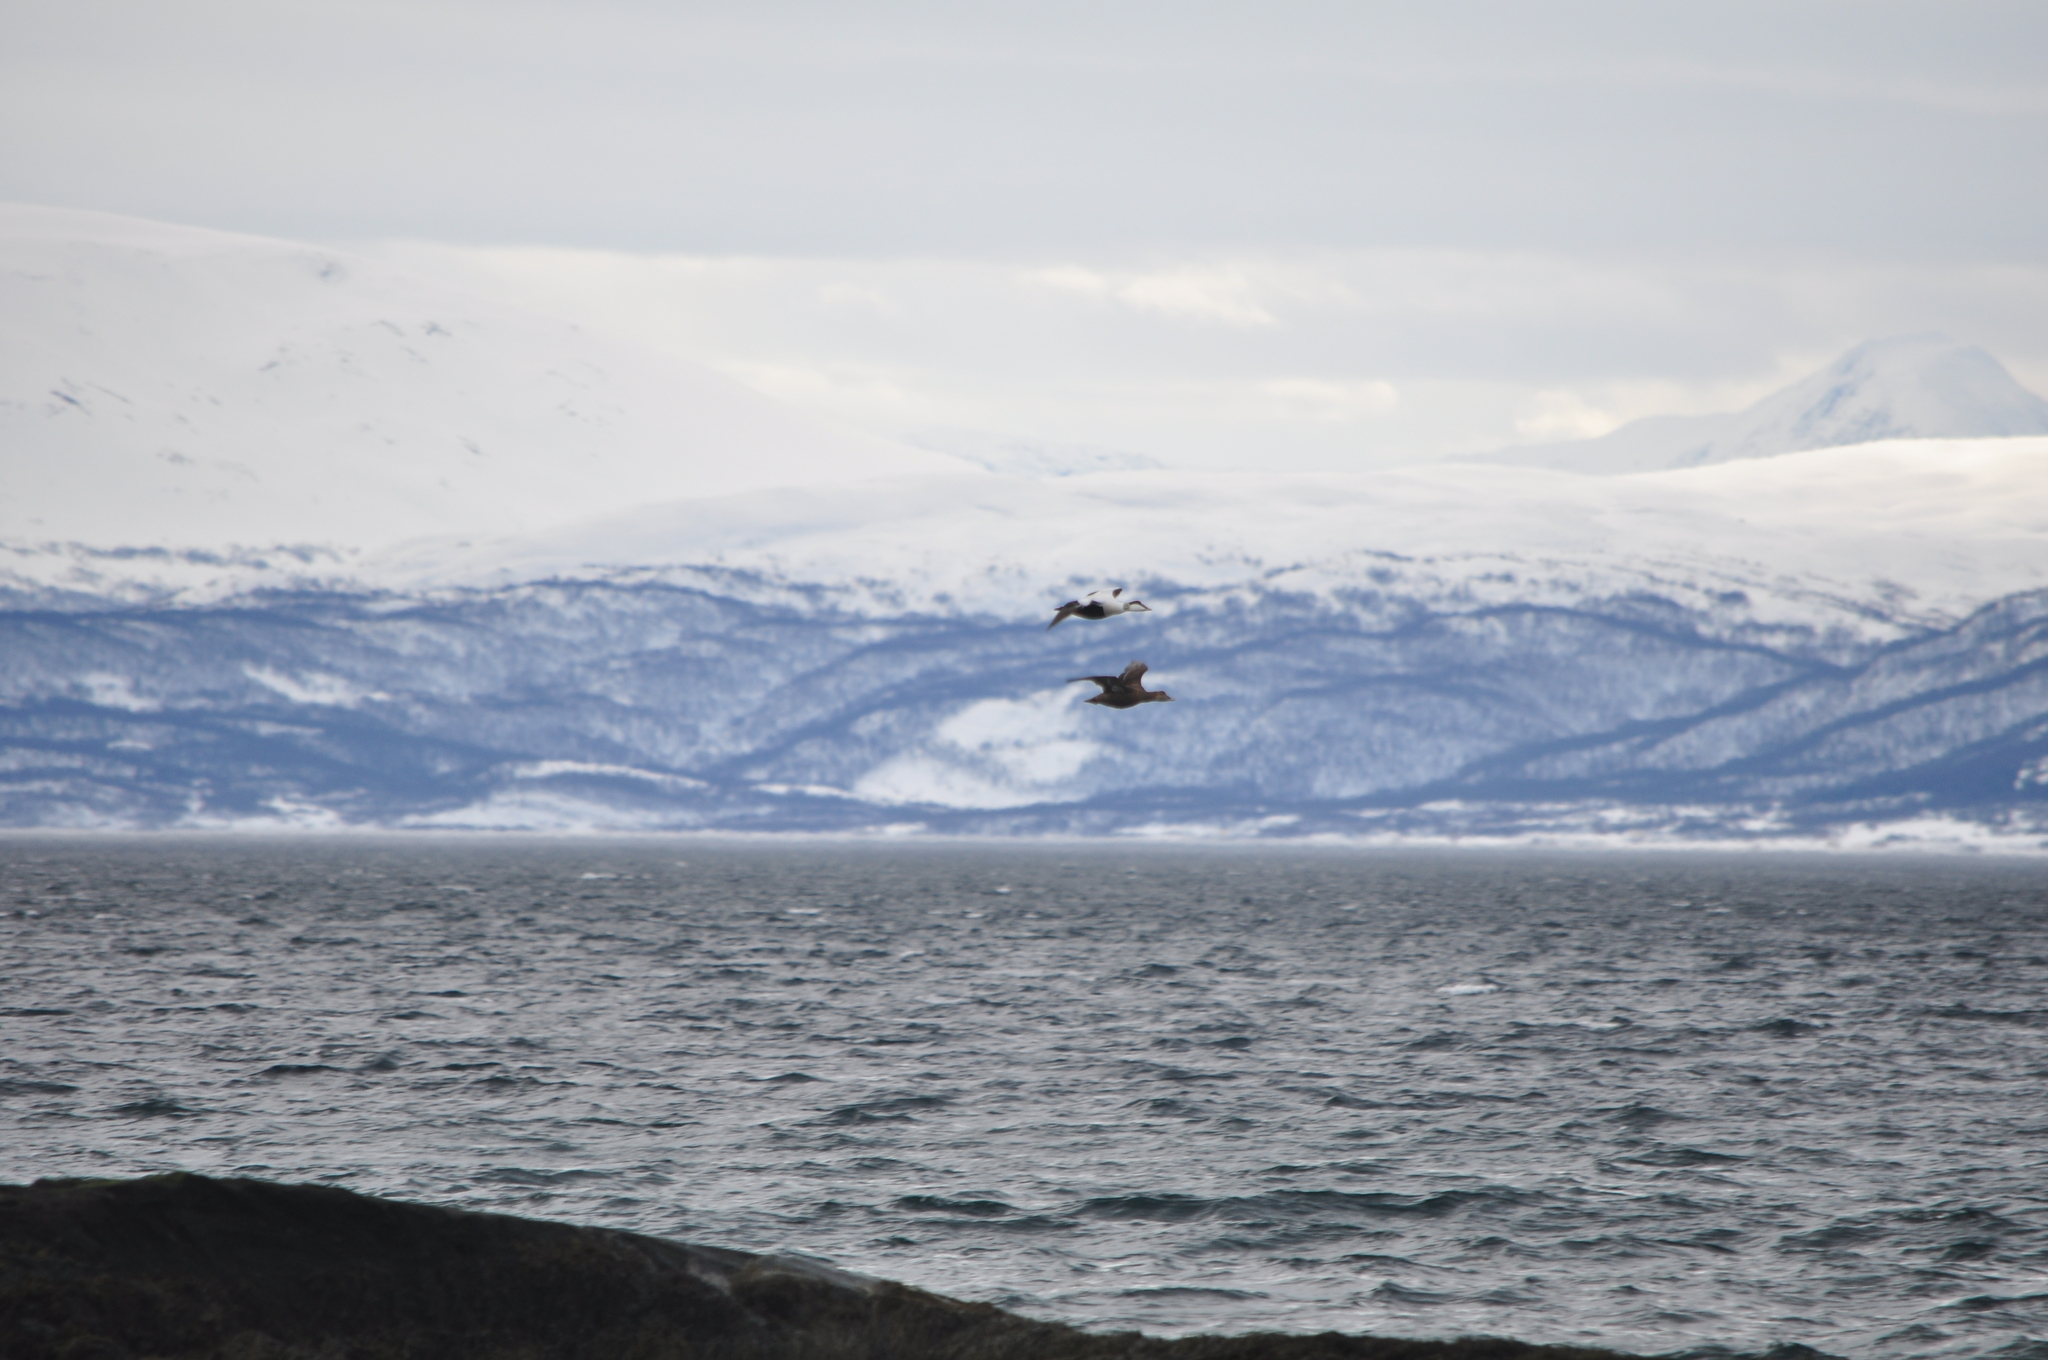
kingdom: Animalia
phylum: Chordata
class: Aves
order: Anseriformes
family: Anatidae
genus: Somateria
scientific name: Somateria mollissima
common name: Common eider
